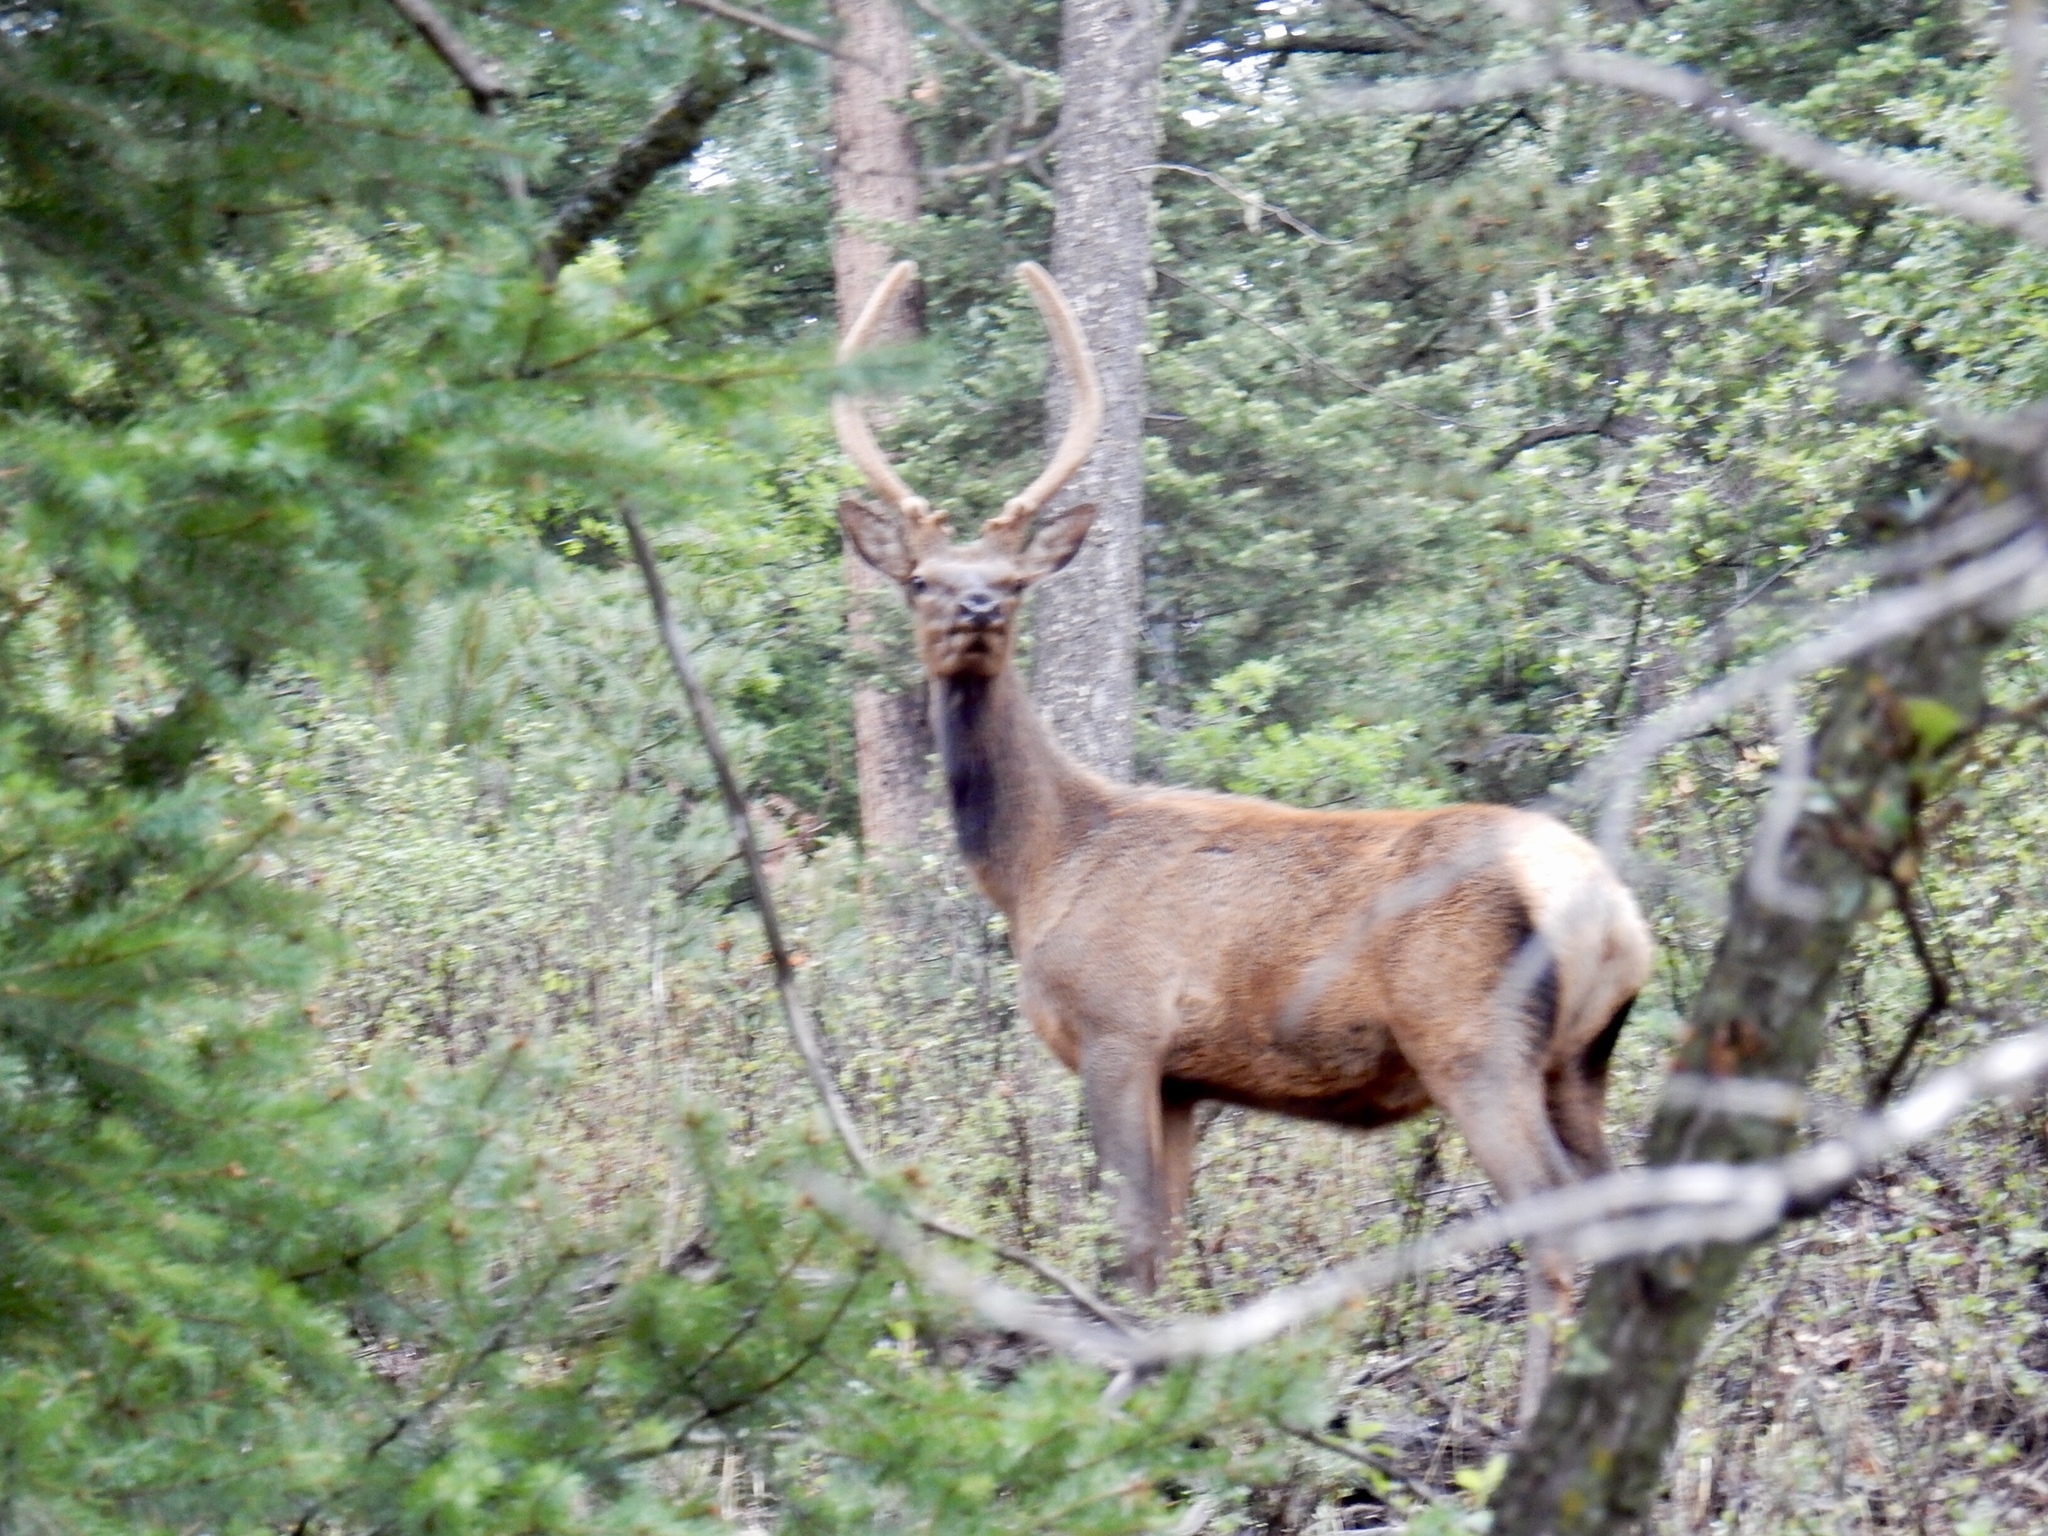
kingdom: Animalia
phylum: Chordata
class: Mammalia
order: Artiodactyla
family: Cervidae
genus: Cervus
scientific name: Cervus elaphus
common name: Red deer
